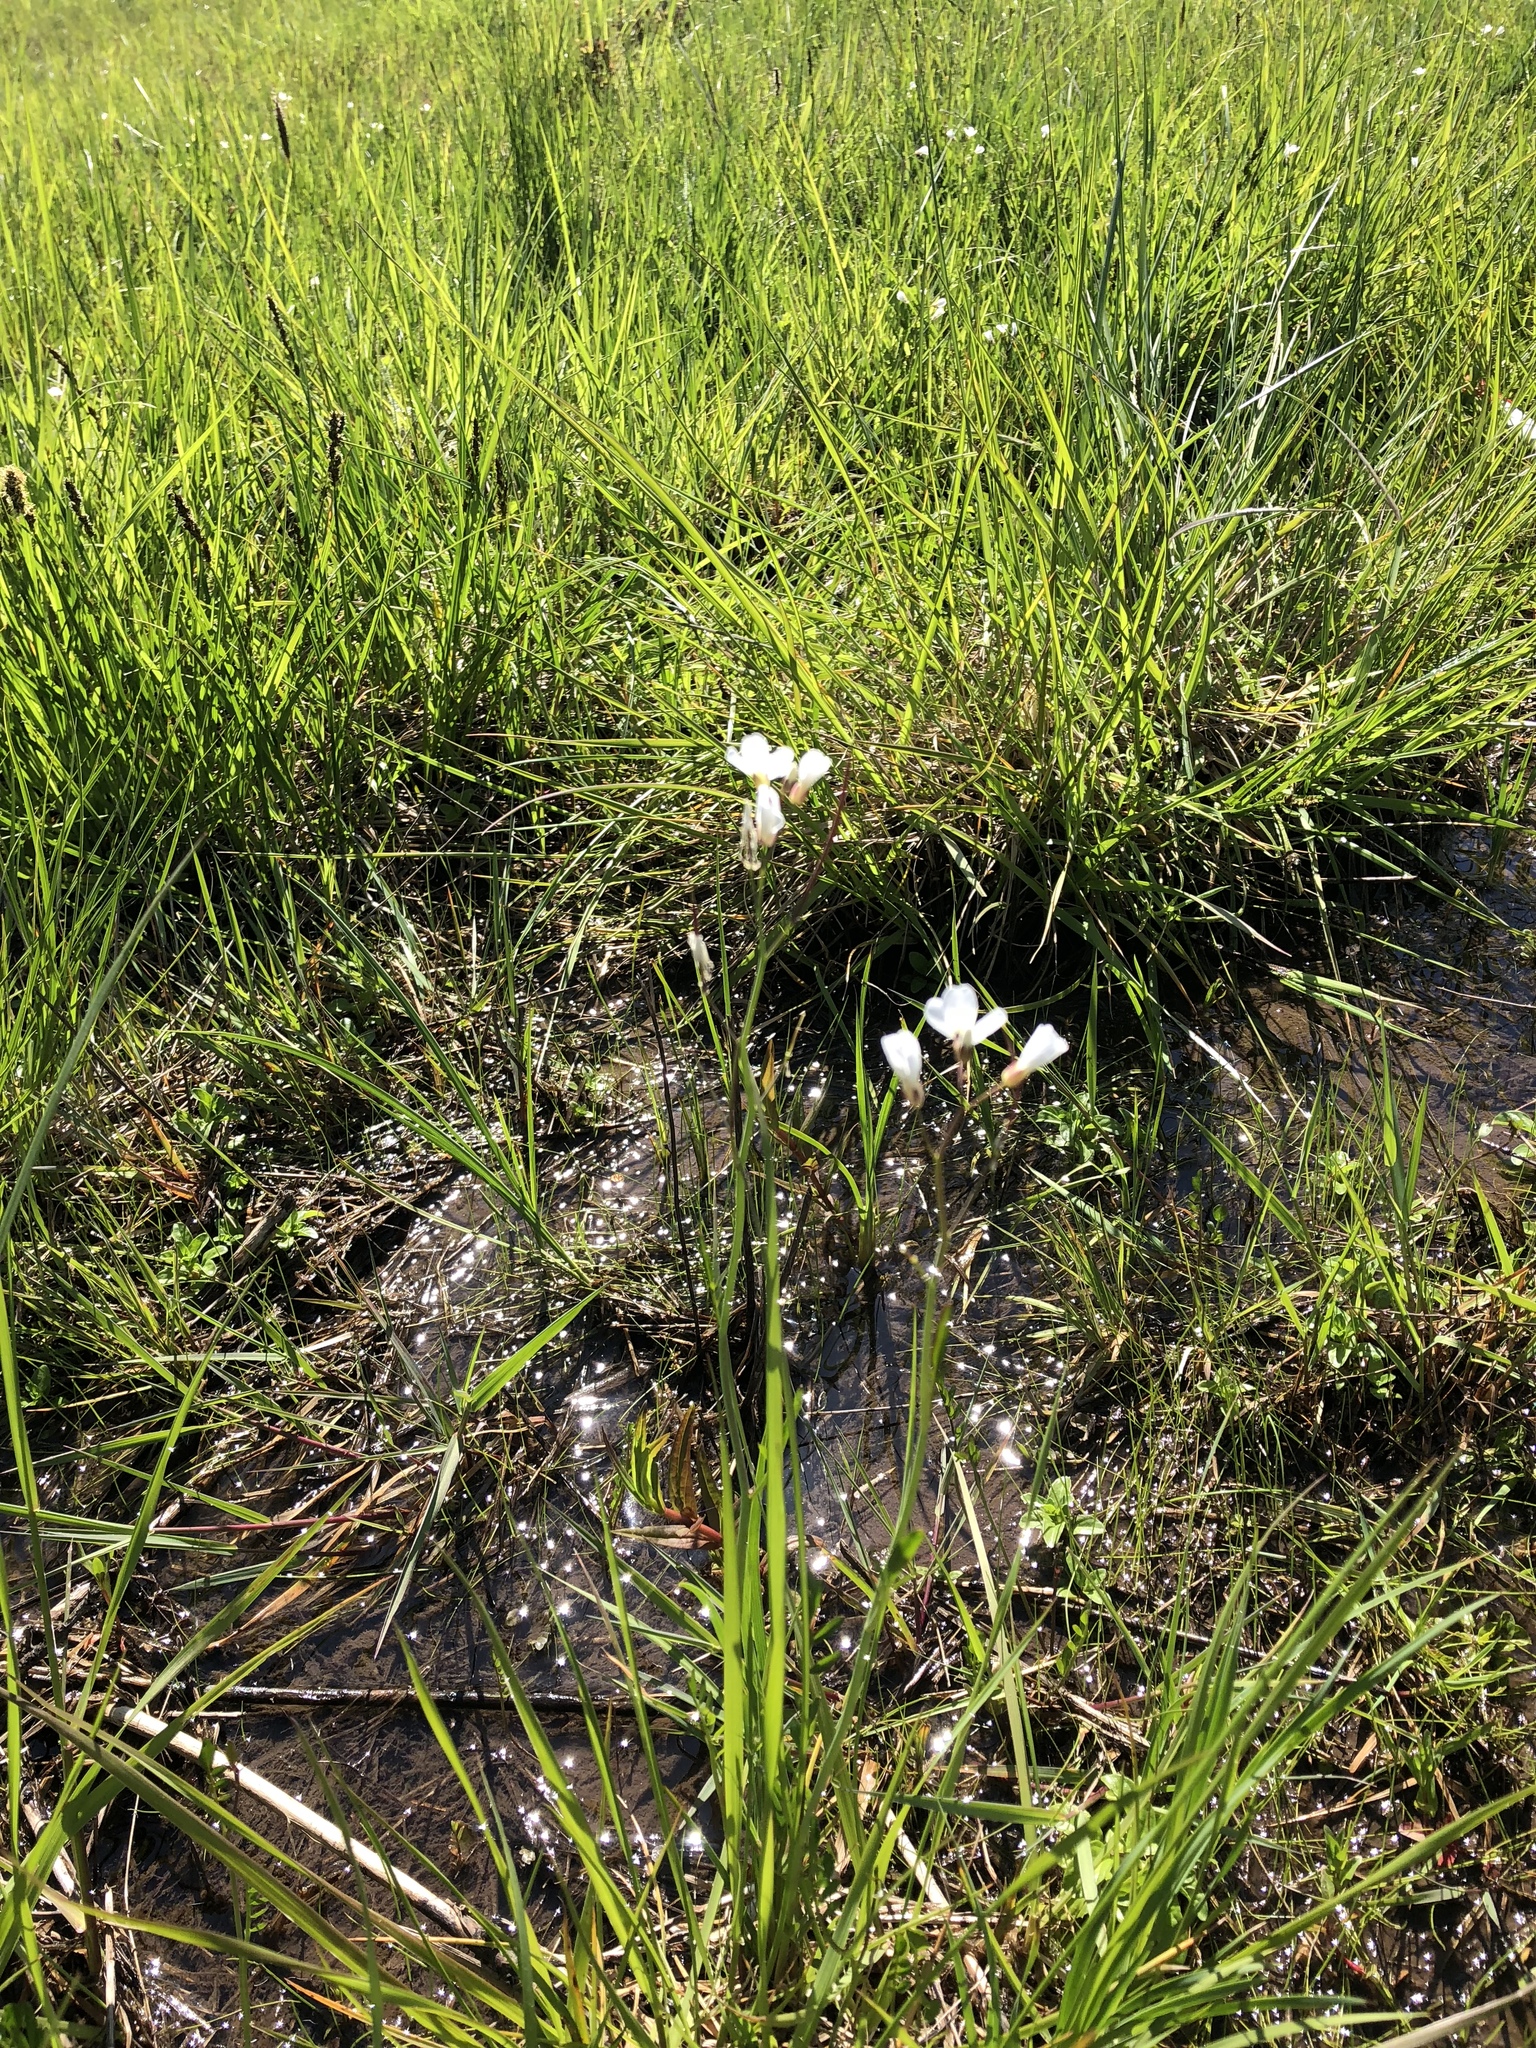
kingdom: Plantae
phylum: Tracheophyta
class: Magnoliopsida
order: Brassicales
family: Brassicaceae
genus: Cardamine
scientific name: Cardamine penduliflora
